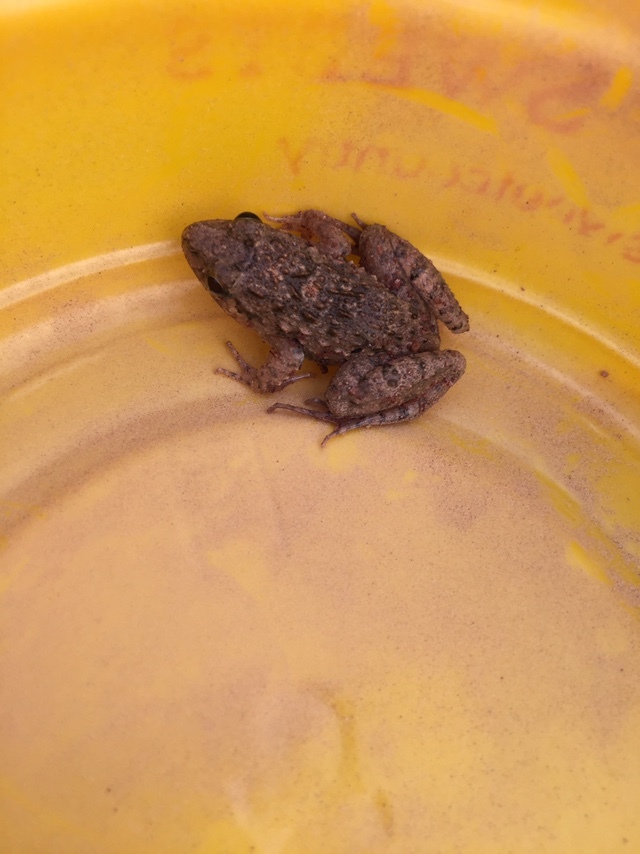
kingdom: Animalia
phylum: Chordata
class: Amphibia
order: Anura
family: Dicroglossidae
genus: Minervarya
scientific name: Minervarya agricola
